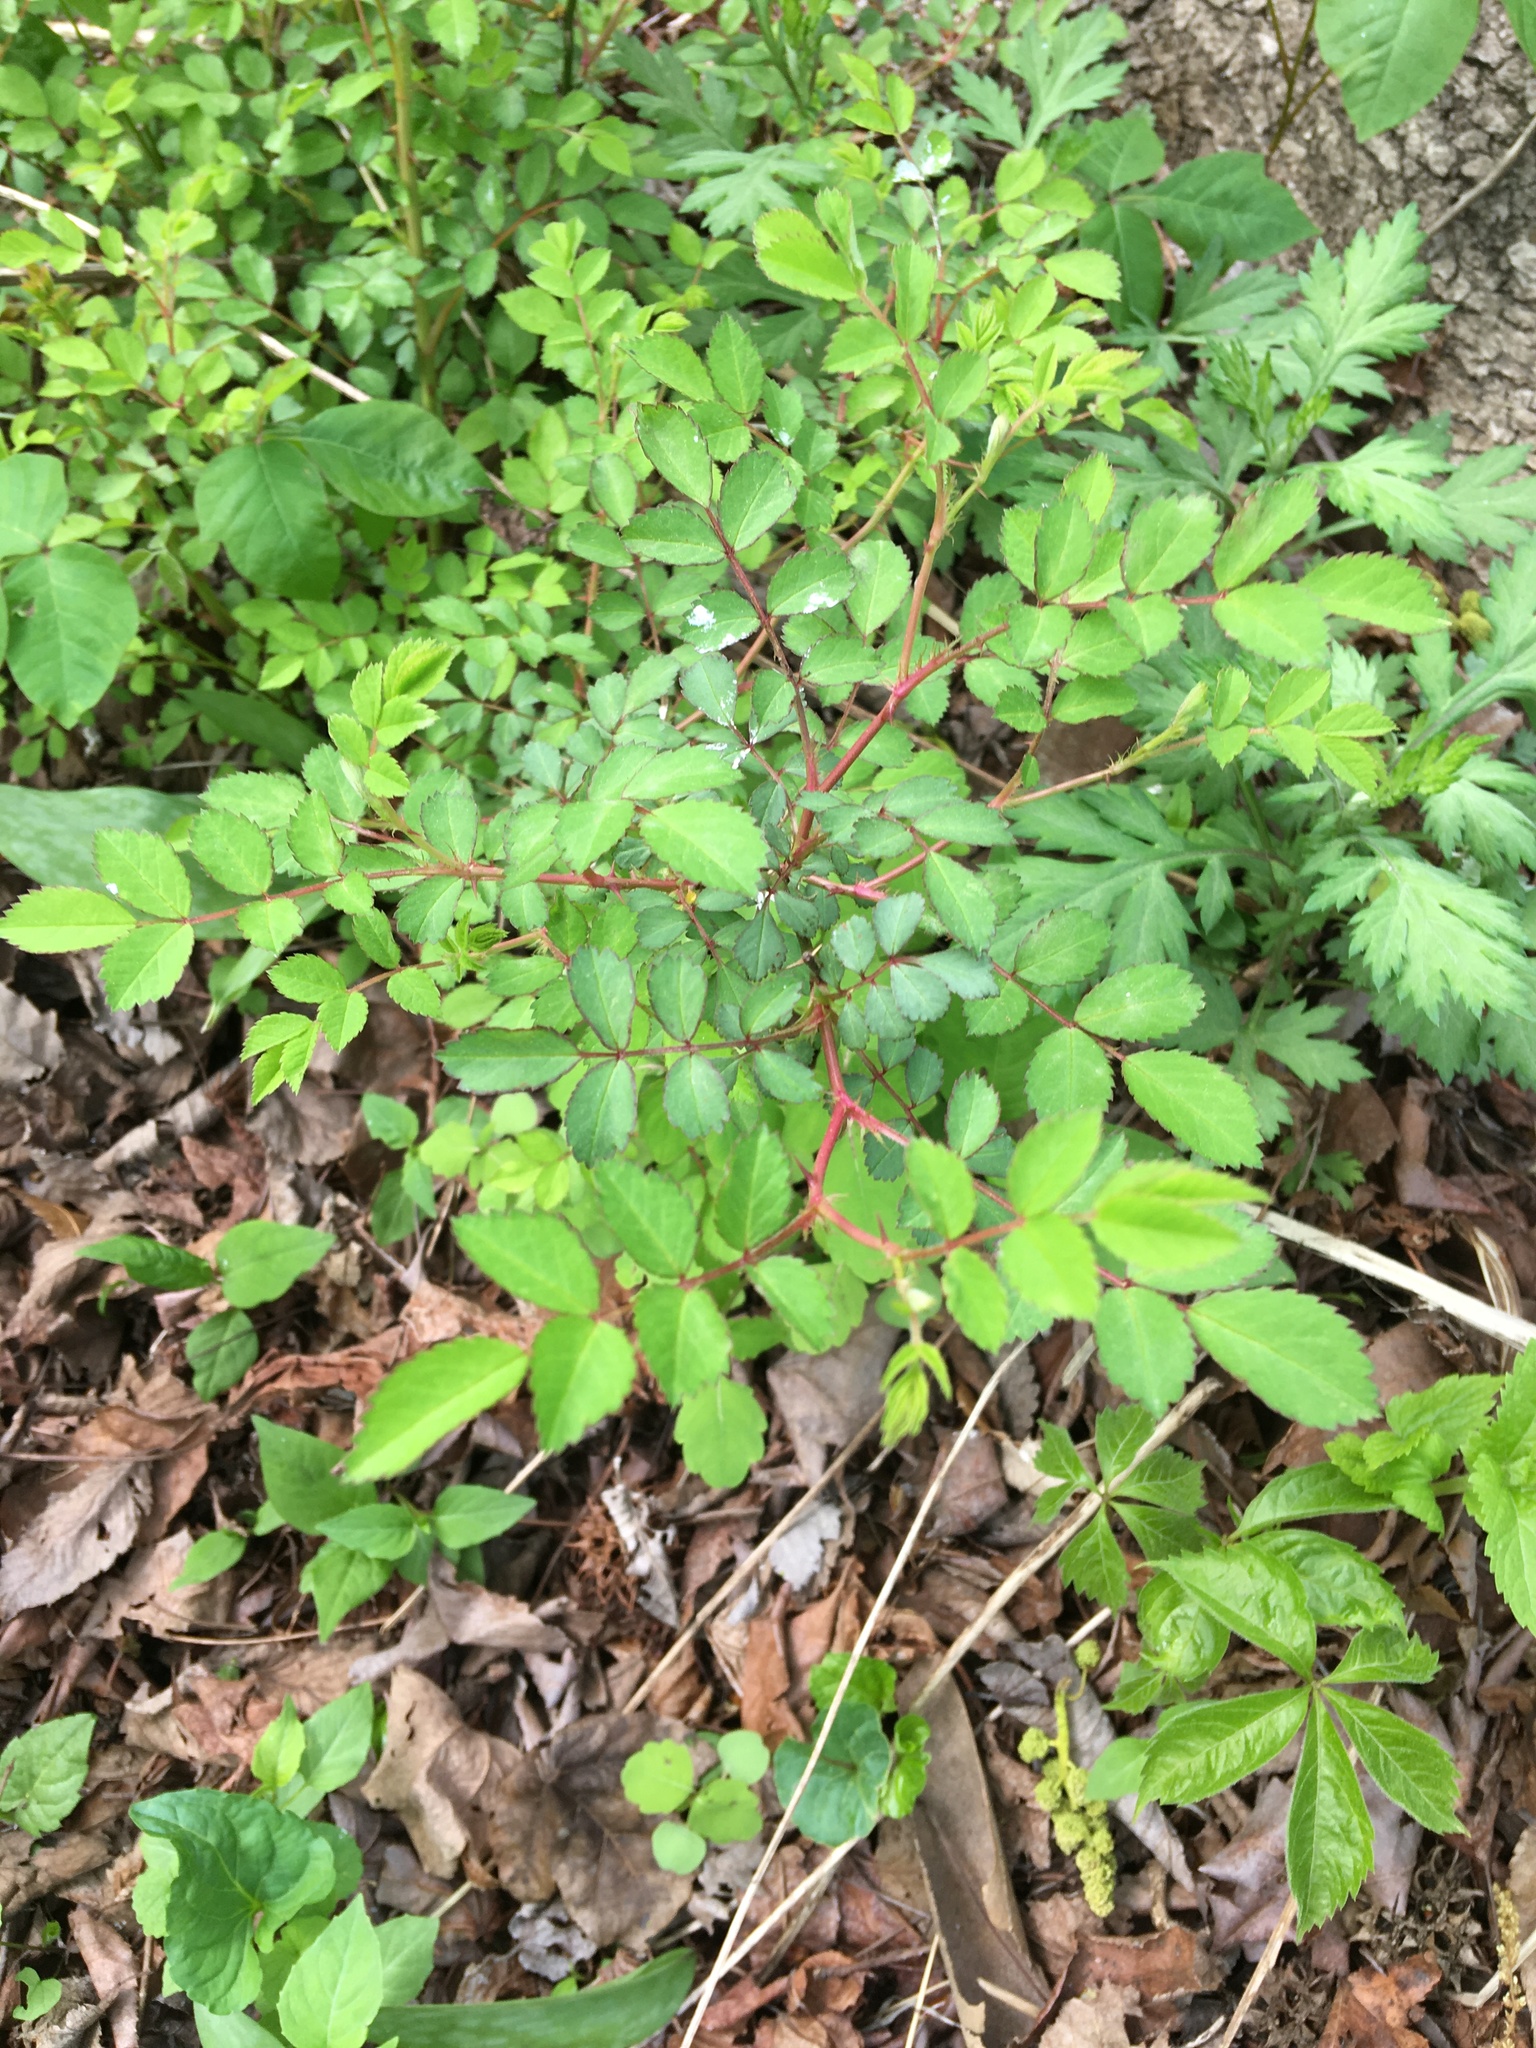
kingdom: Plantae
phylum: Tracheophyta
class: Magnoliopsida
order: Rosales
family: Rosaceae
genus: Rosa
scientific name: Rosa multiflora
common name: Multiflora rose
